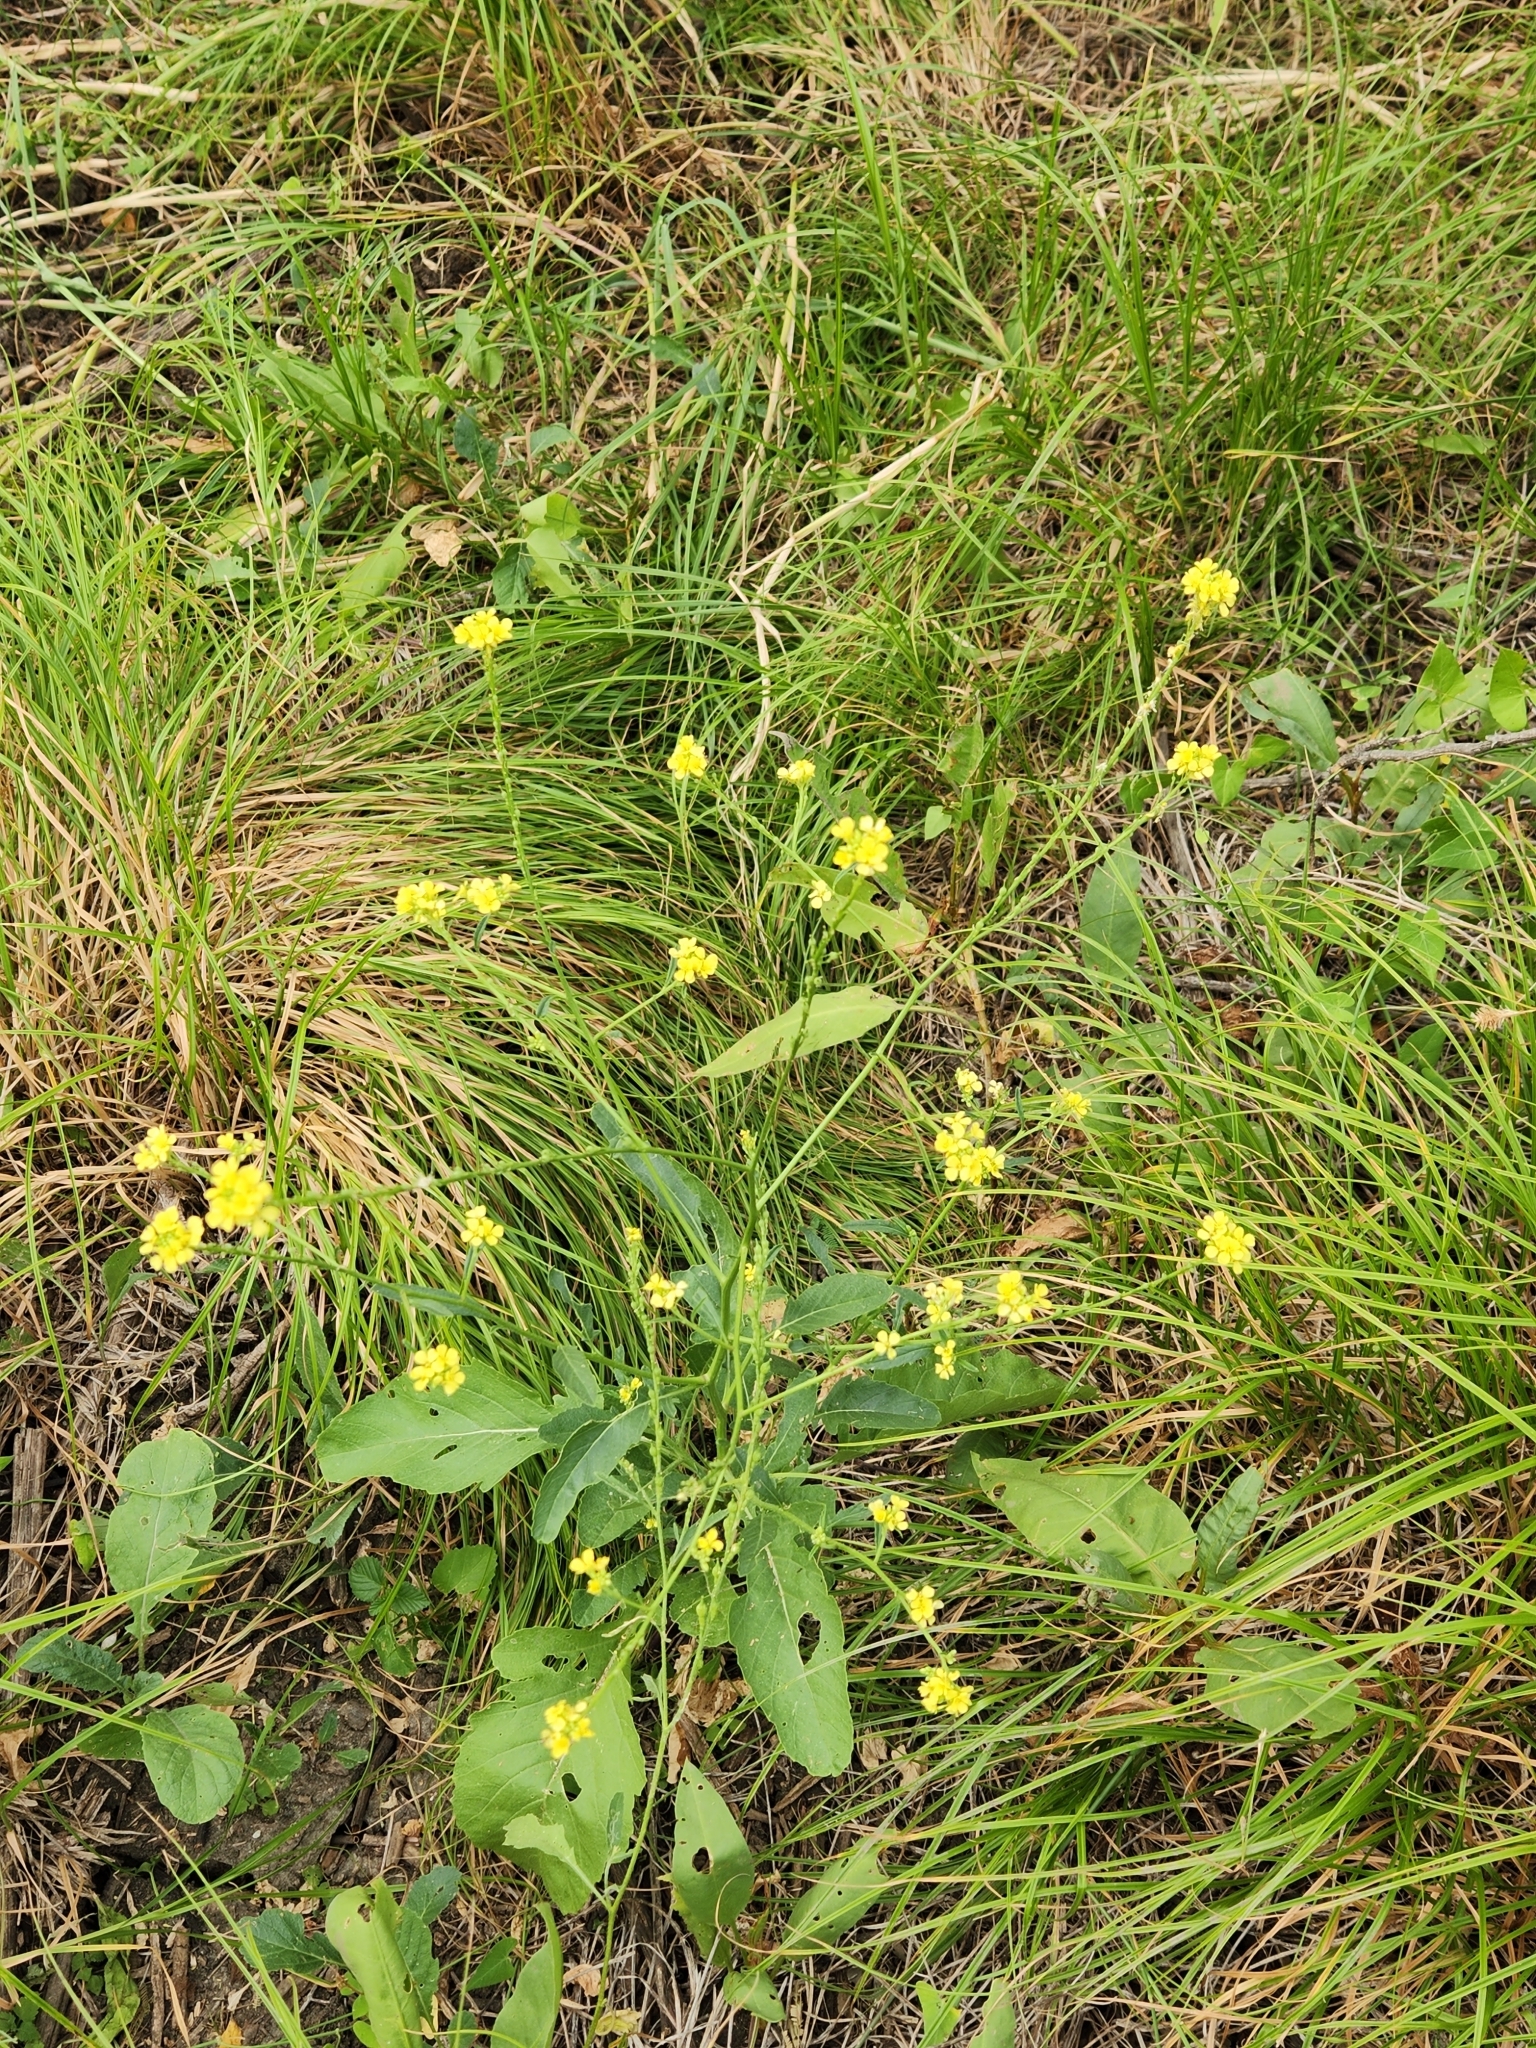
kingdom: Plantae
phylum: Tracheophyta
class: Magnoliopsida
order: Brassicales
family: Brassicaceae
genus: Rapistrum
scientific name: Rapistrum rugosum
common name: Annual bastardcabbage
